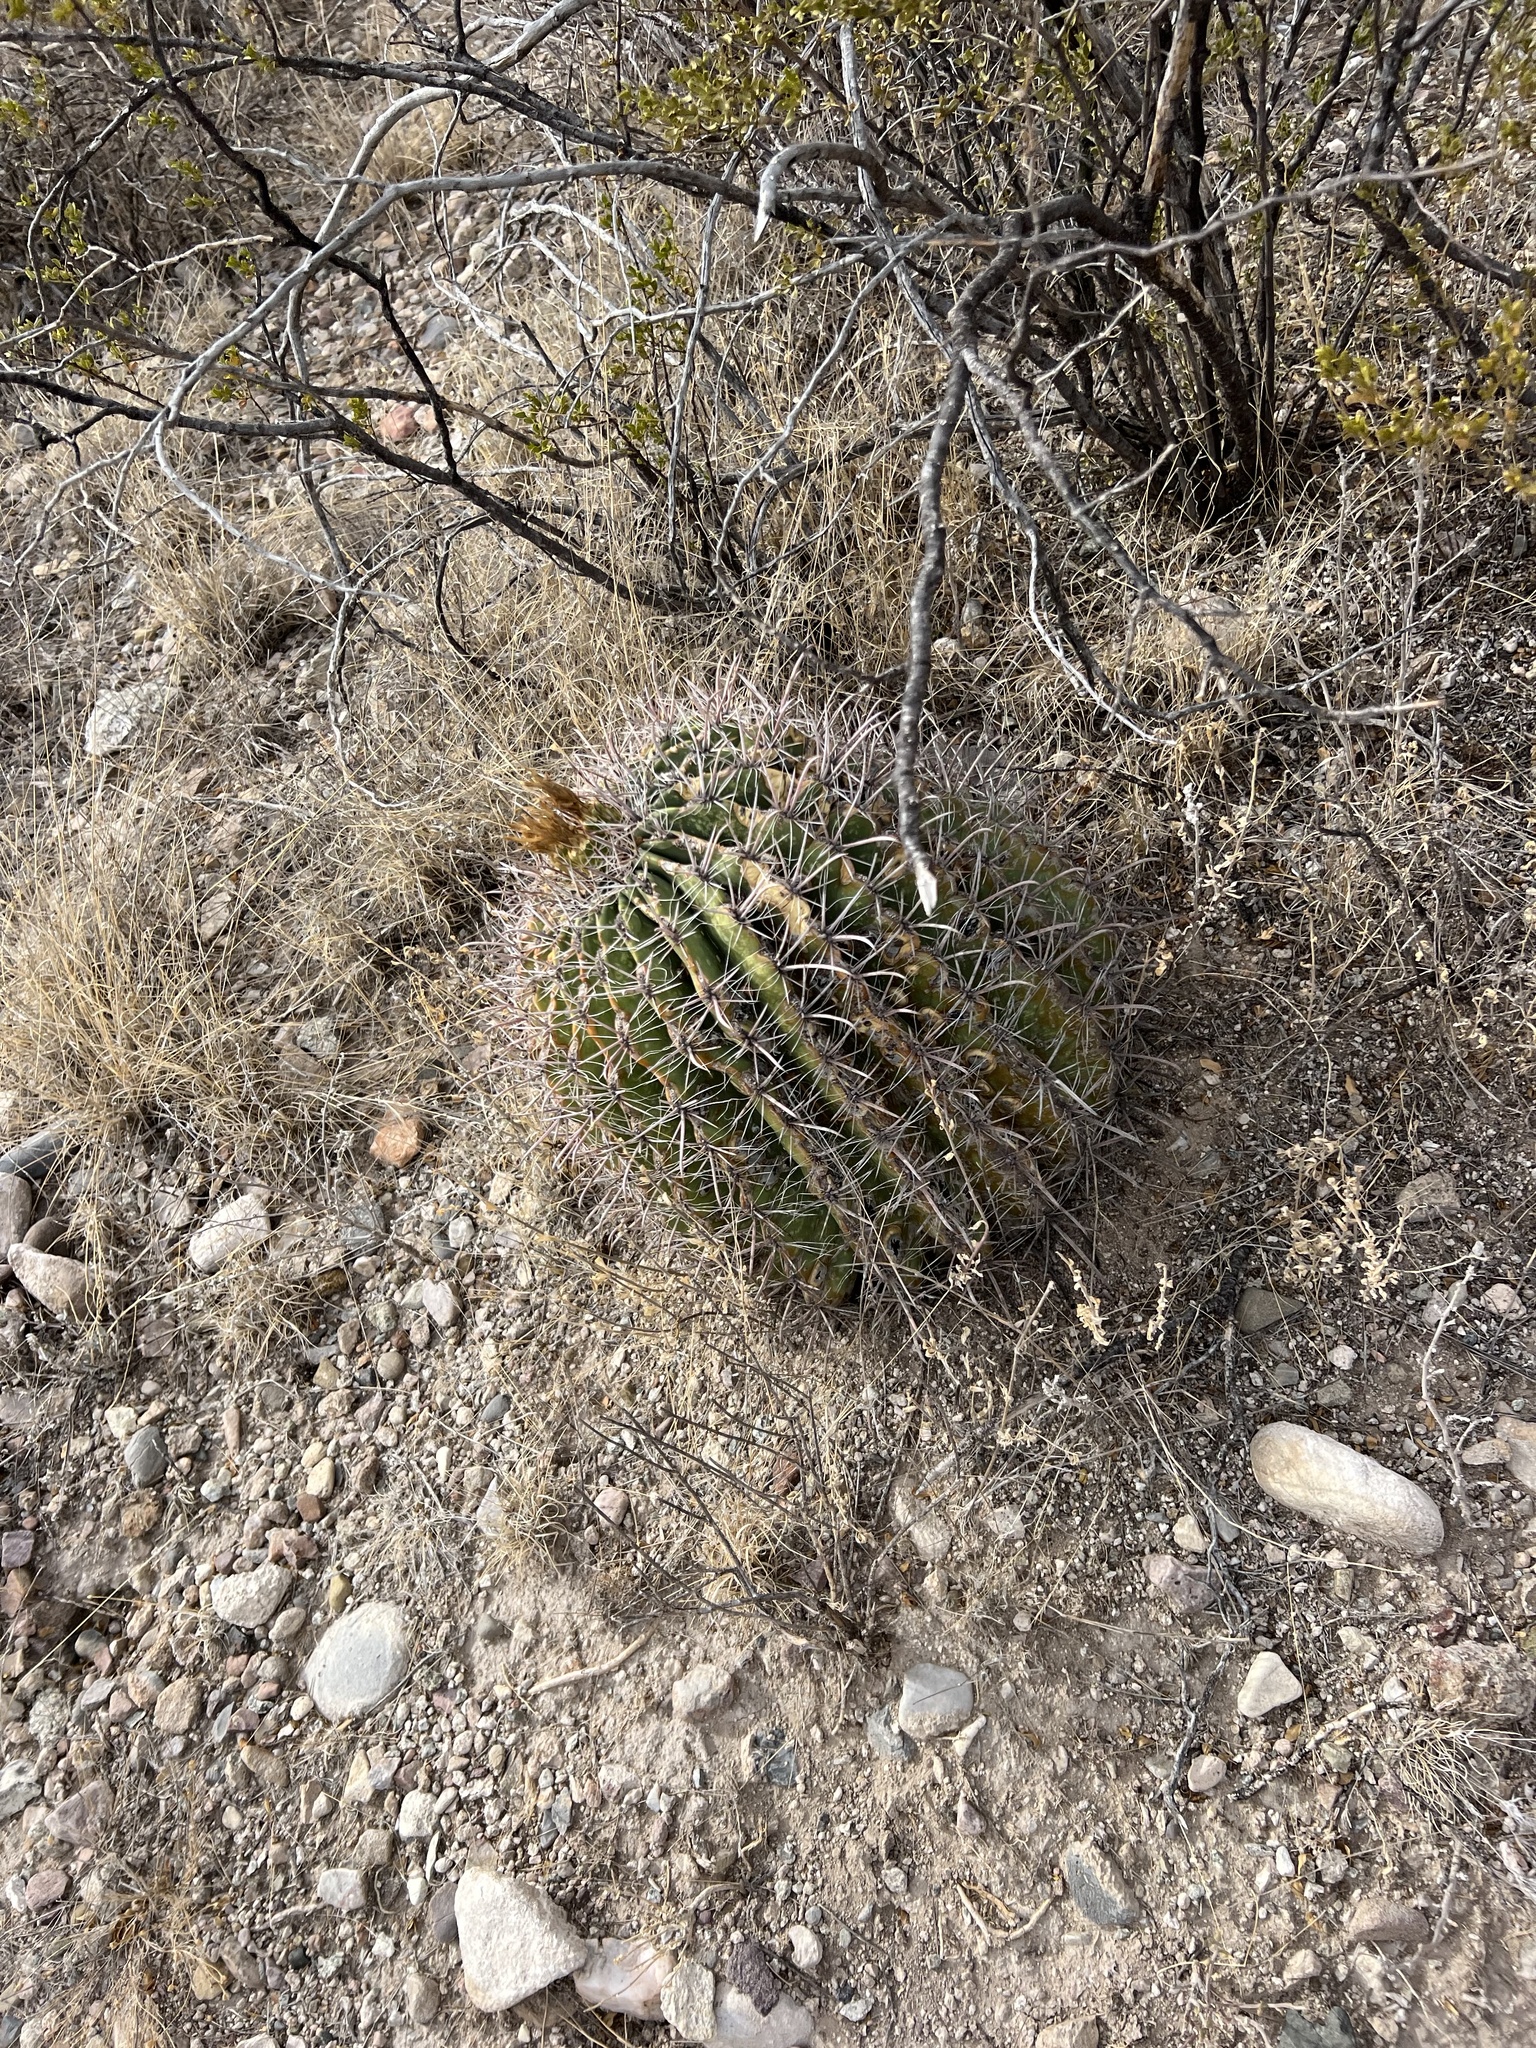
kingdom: Plantae
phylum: Tracheophyta
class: Magnoliopsida
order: Caryophyllales
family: Cactaceae
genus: Ferocactus
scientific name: Ferocactus wislizeni
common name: Candy barrel cactus
